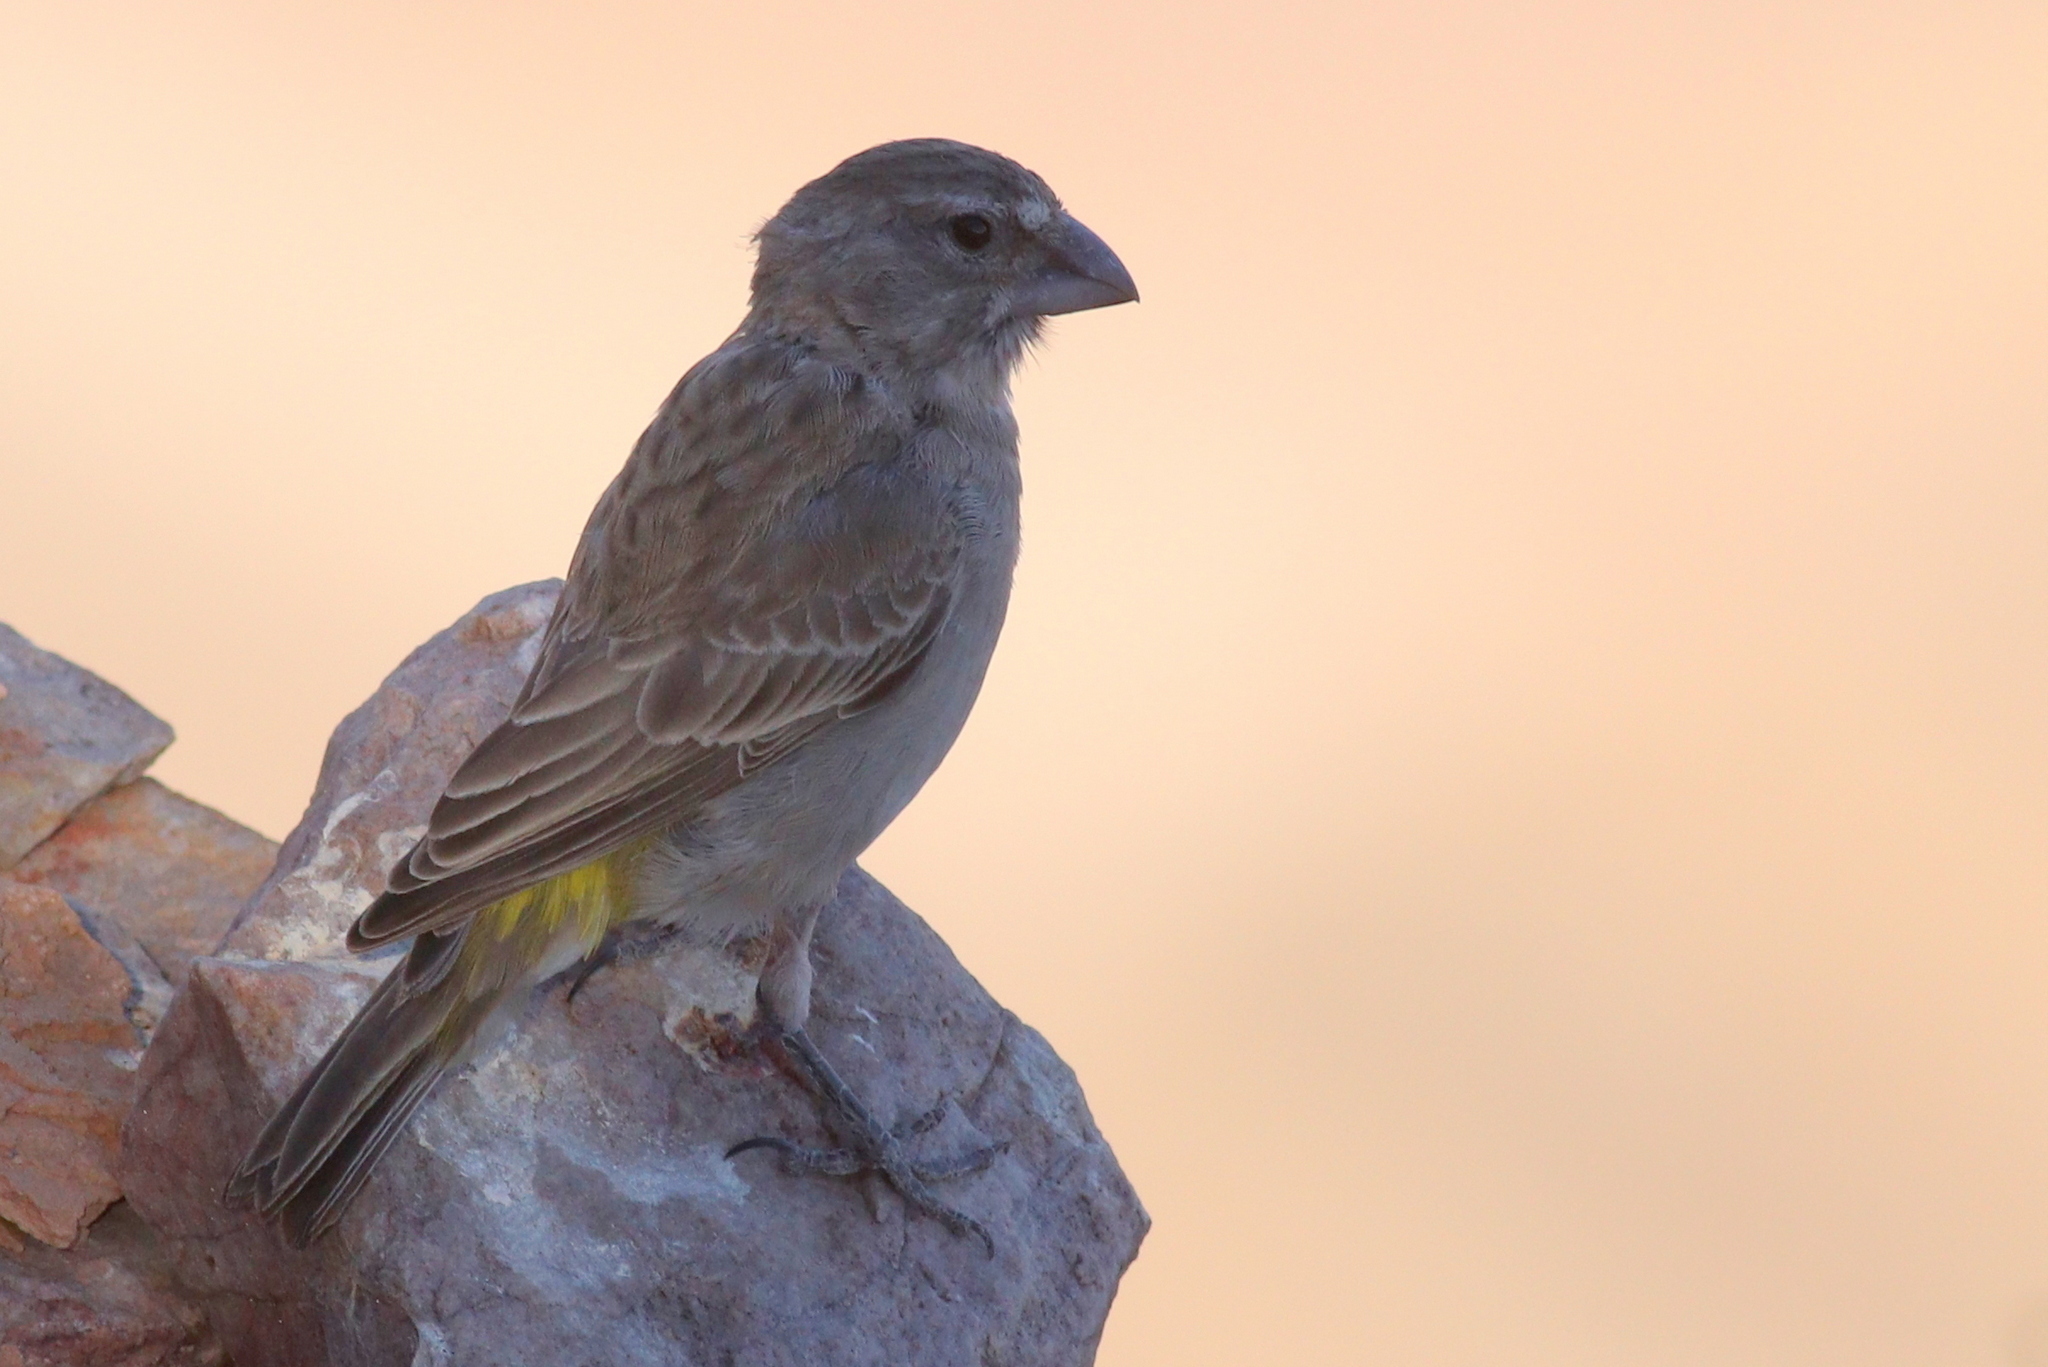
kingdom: Animalia
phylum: Chordata
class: Aves
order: Passeriformes
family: Fringillidae
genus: Crithagra
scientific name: Crithagra albogularis
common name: White-throated canary
